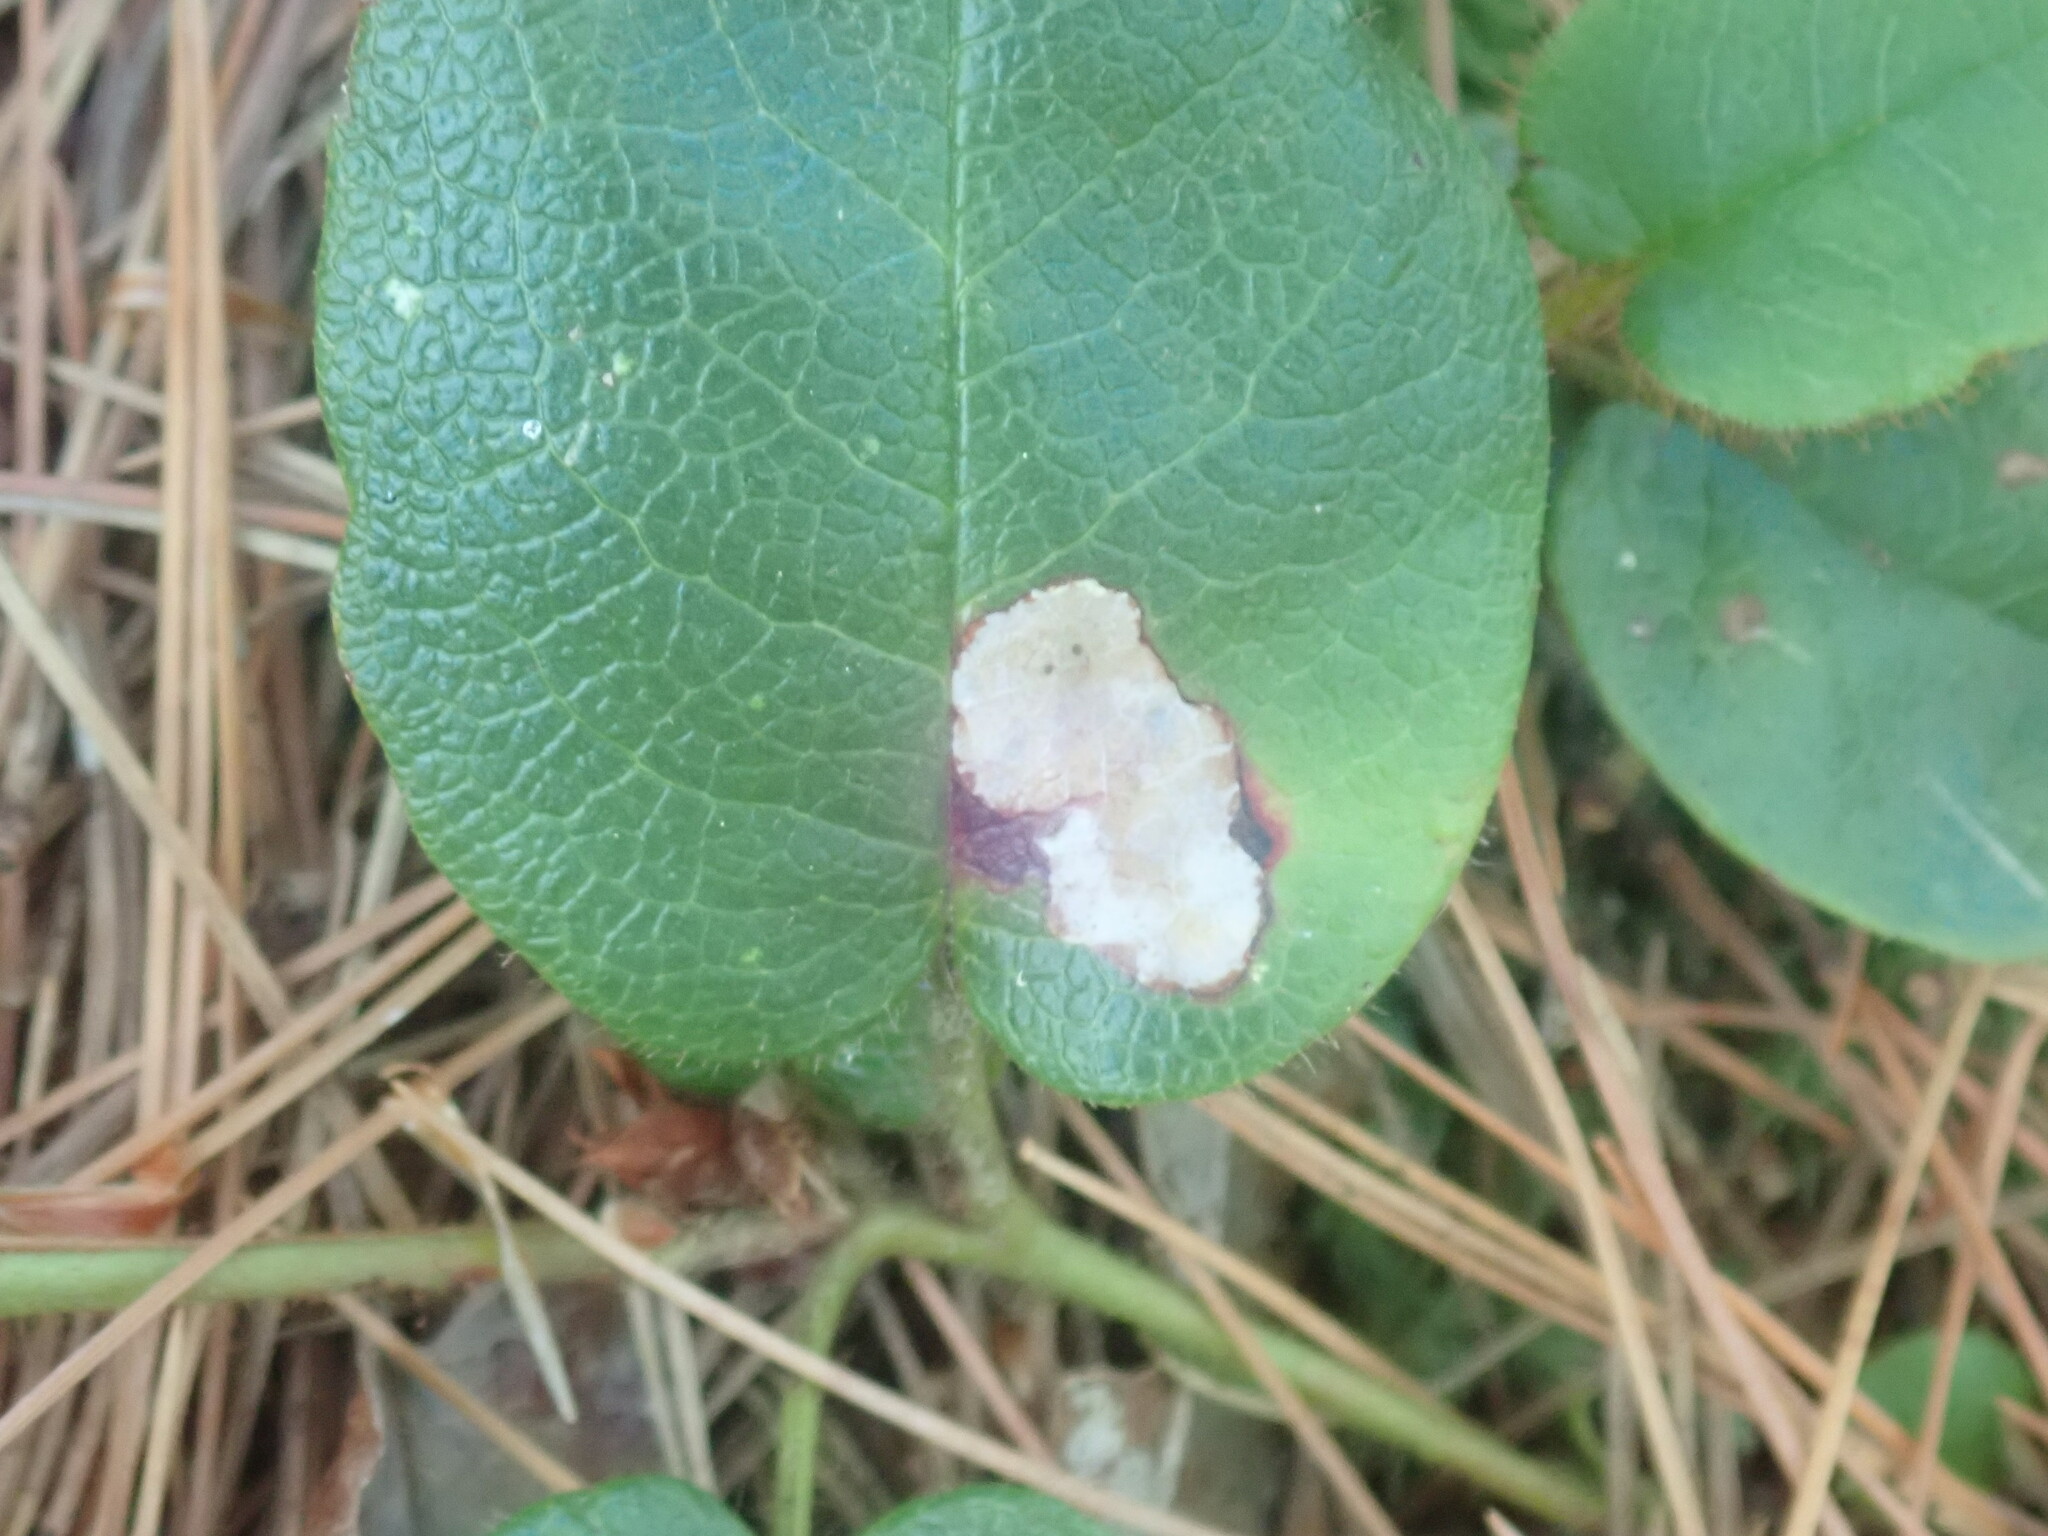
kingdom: Animalia
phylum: Arthropoda
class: Insecta
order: Coleoptera
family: Buprestidae
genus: Brachys
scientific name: Brachys
